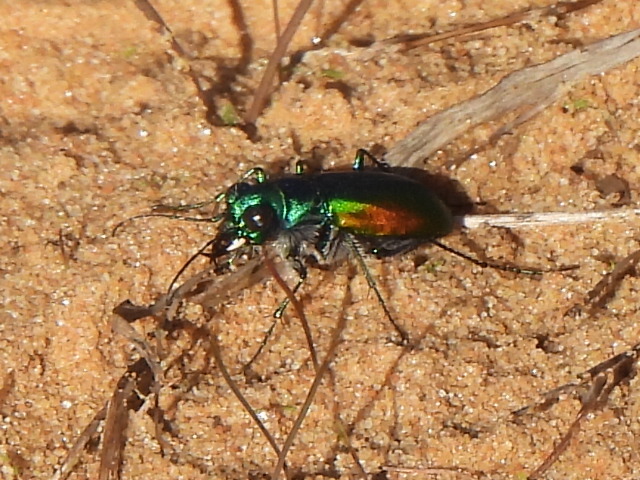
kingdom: Animalia
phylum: Arthropoda
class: Insecta
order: Coleoptera
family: Carabidae
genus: Cicindela
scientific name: Cicindela scutellaris
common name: Festive tiger beetle
